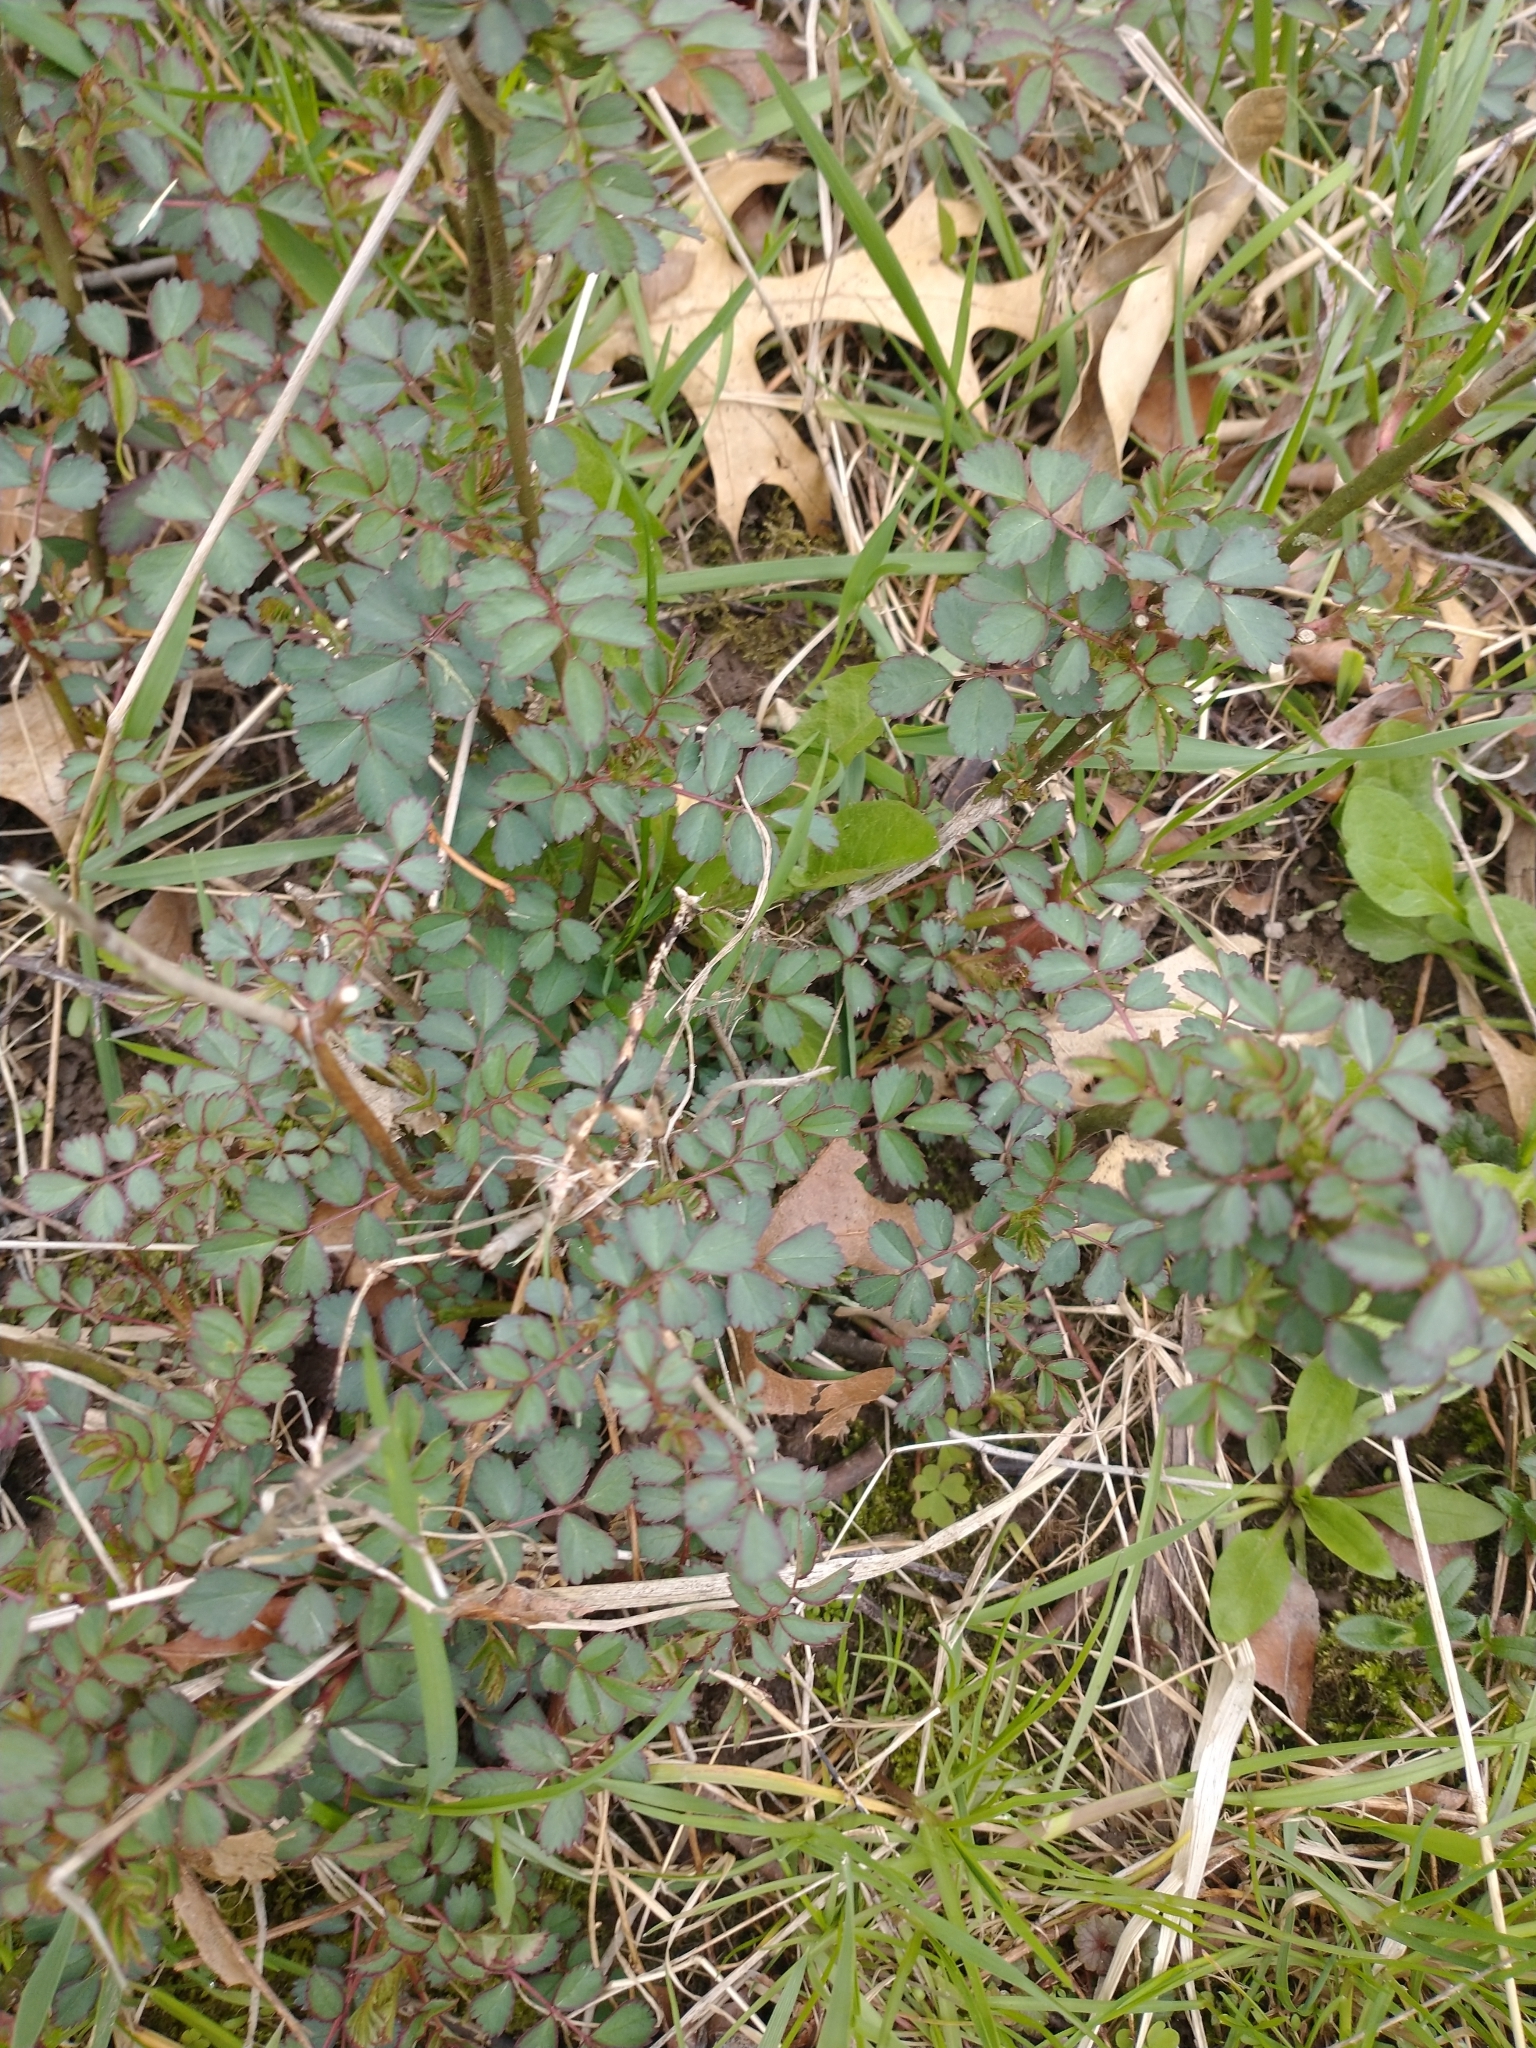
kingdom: Plantae
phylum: Tracheophyta
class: Magnoliopsida
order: Rosales
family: Rosaceae
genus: Rosa
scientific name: Rosa multiflora
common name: Multiflora rose
